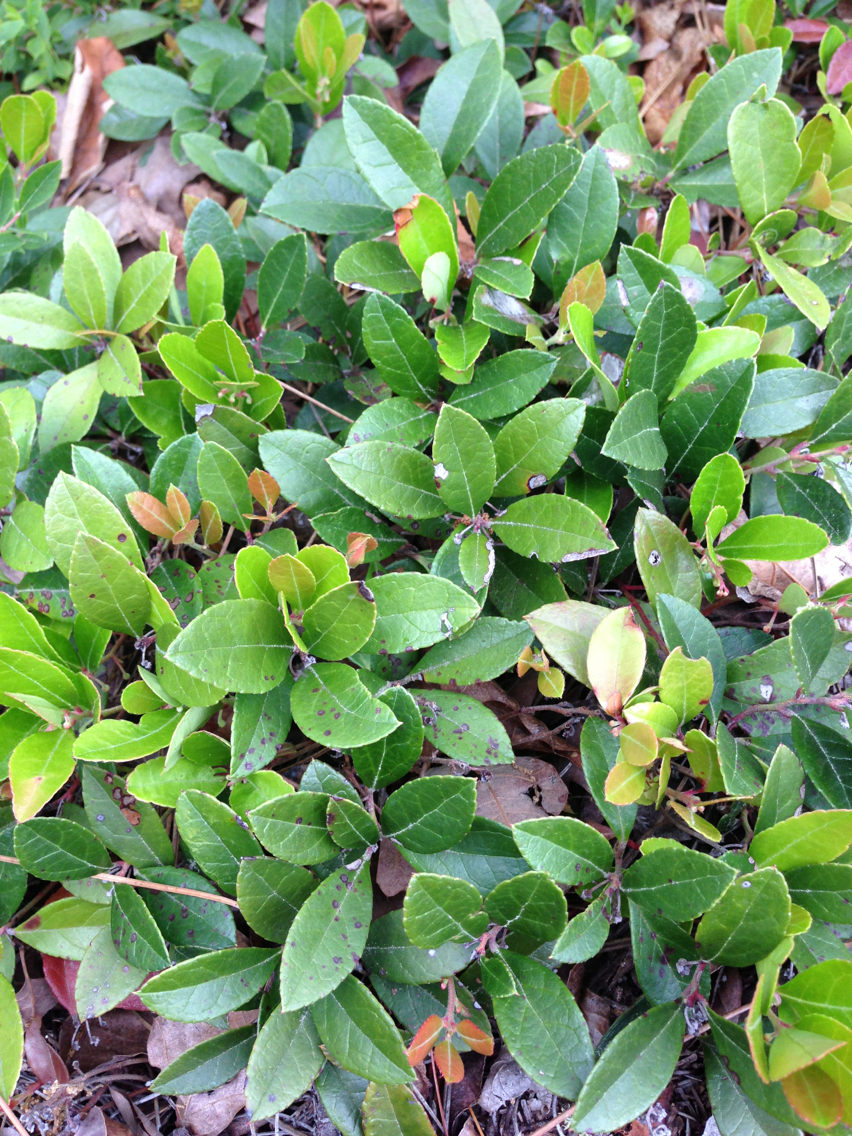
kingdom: Plantae
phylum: Tracheophyta
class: Magnoliopsida
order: Ericales
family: Ericaceae
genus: Gaultheria
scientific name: Gaultheria procumbens
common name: Checkerberry
